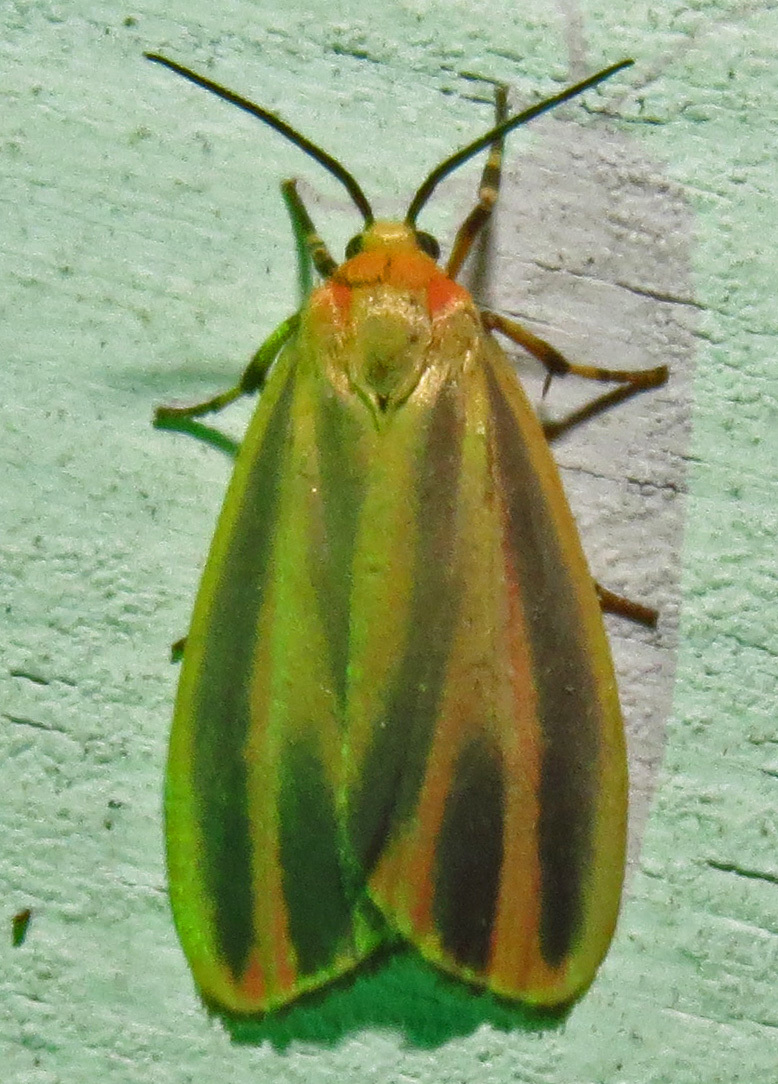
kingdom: Animalia
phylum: Arthropoda
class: Insecta
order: Lepidoptera
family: Erebidae
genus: Hypoprepia
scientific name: Hypoprepia fucosa
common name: Painted lichen moth
